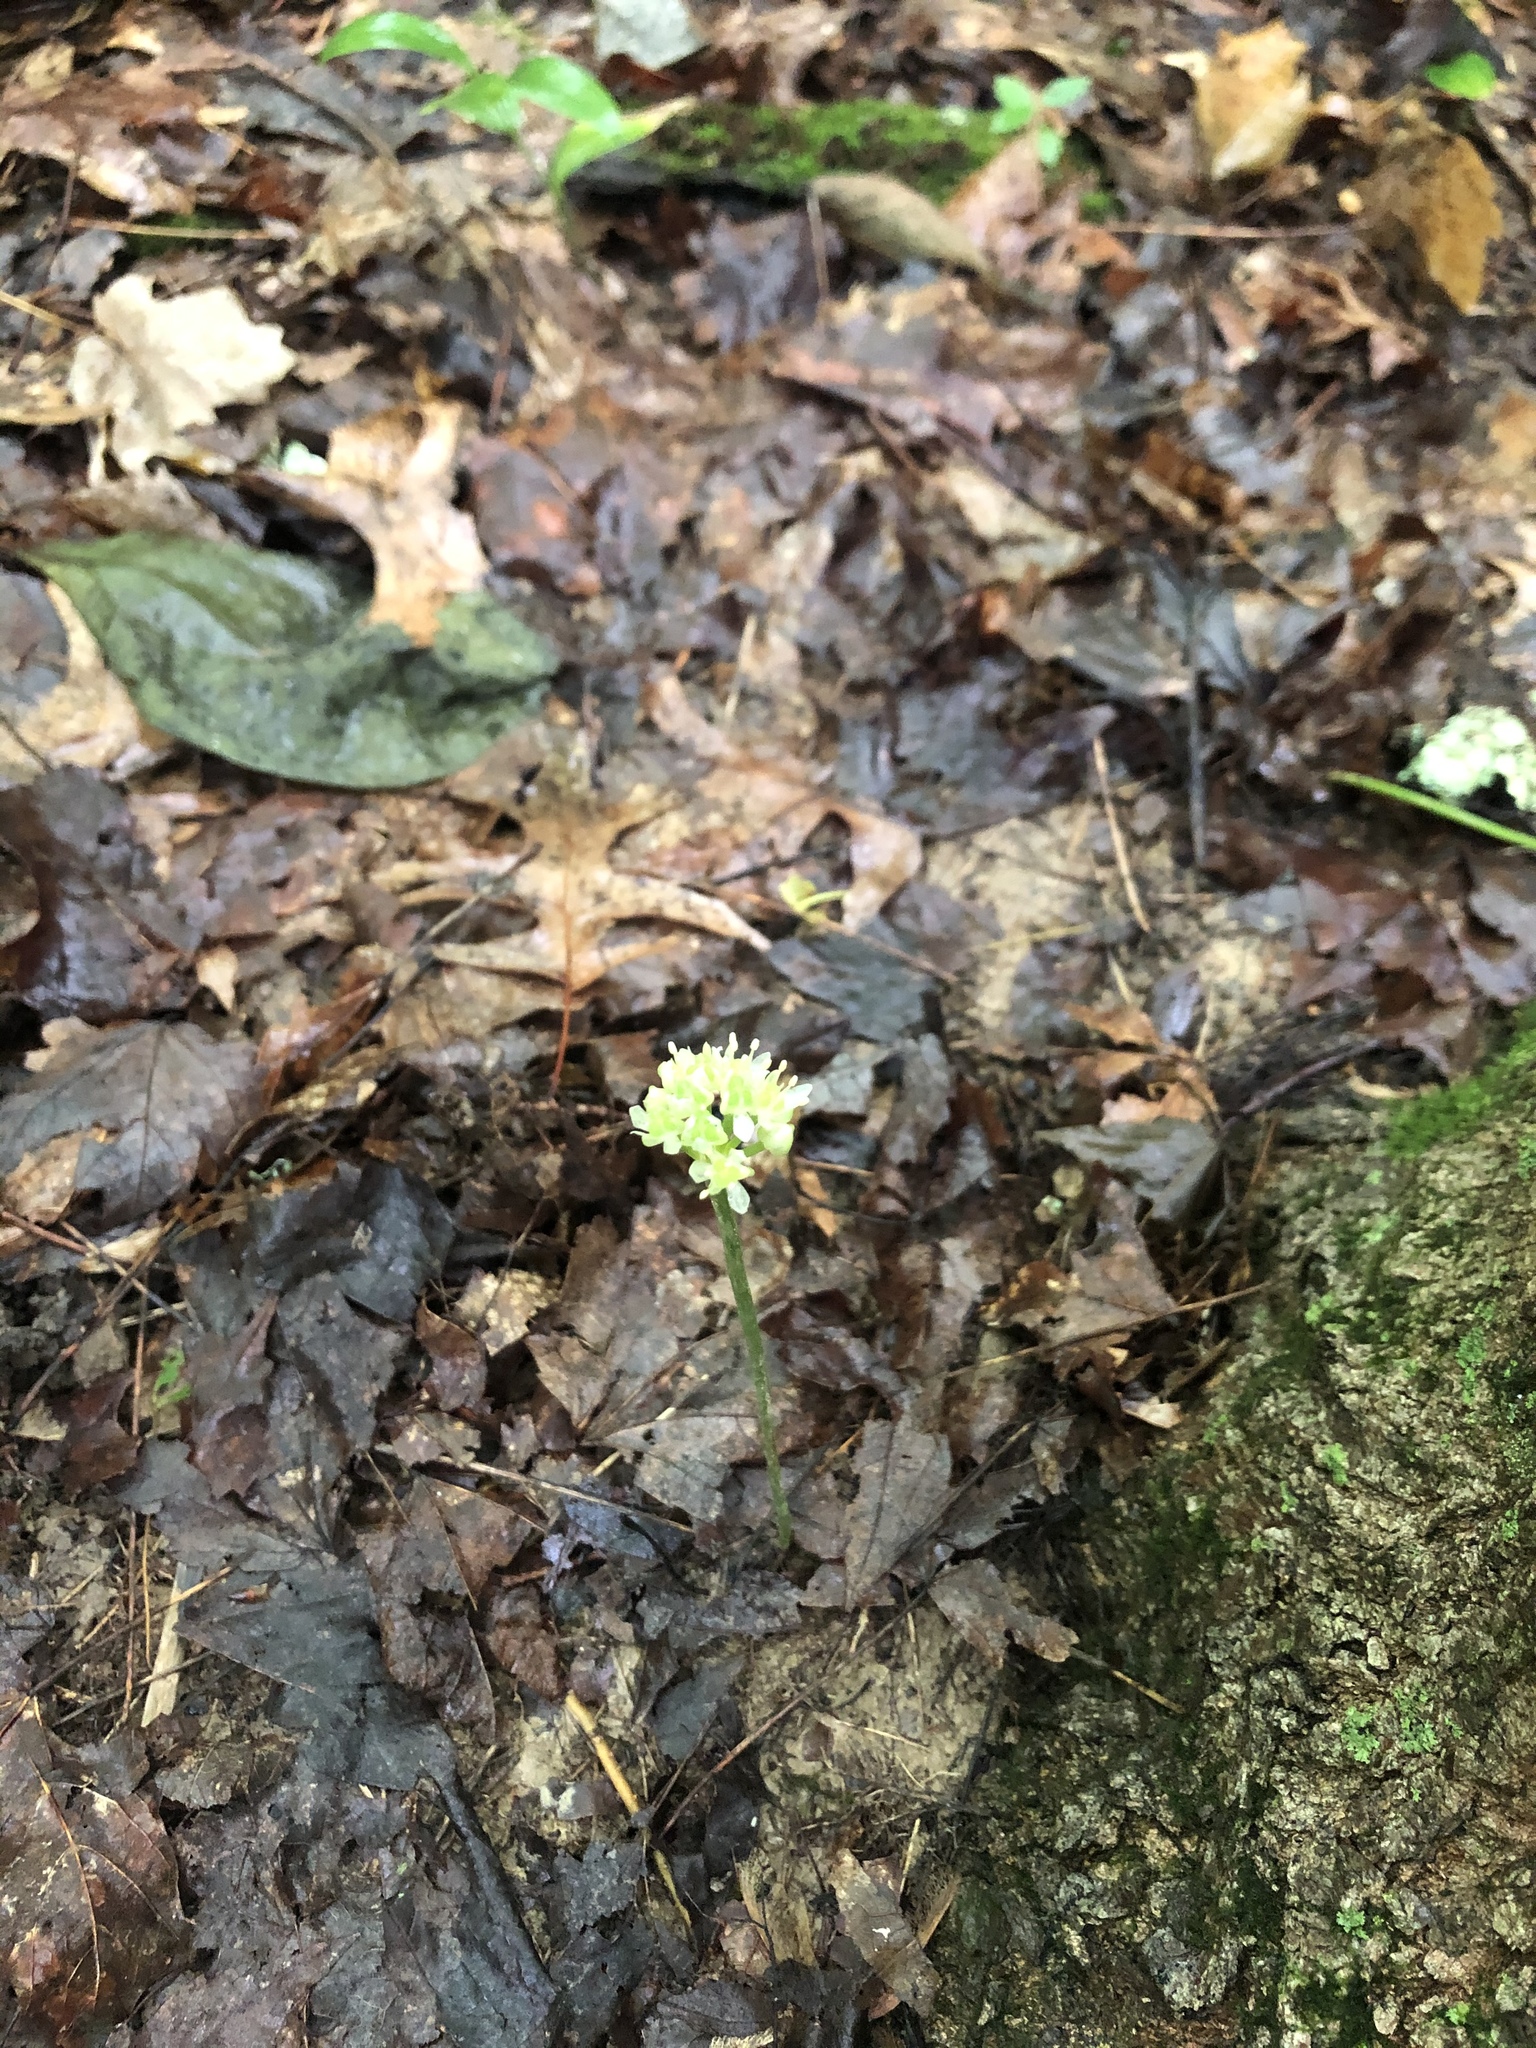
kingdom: Plantae
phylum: Tracheophyta
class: Liliopsida
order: Asparagales
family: Amaryllidaceae
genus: Allium
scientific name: Allium tricoccum
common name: Ramp
